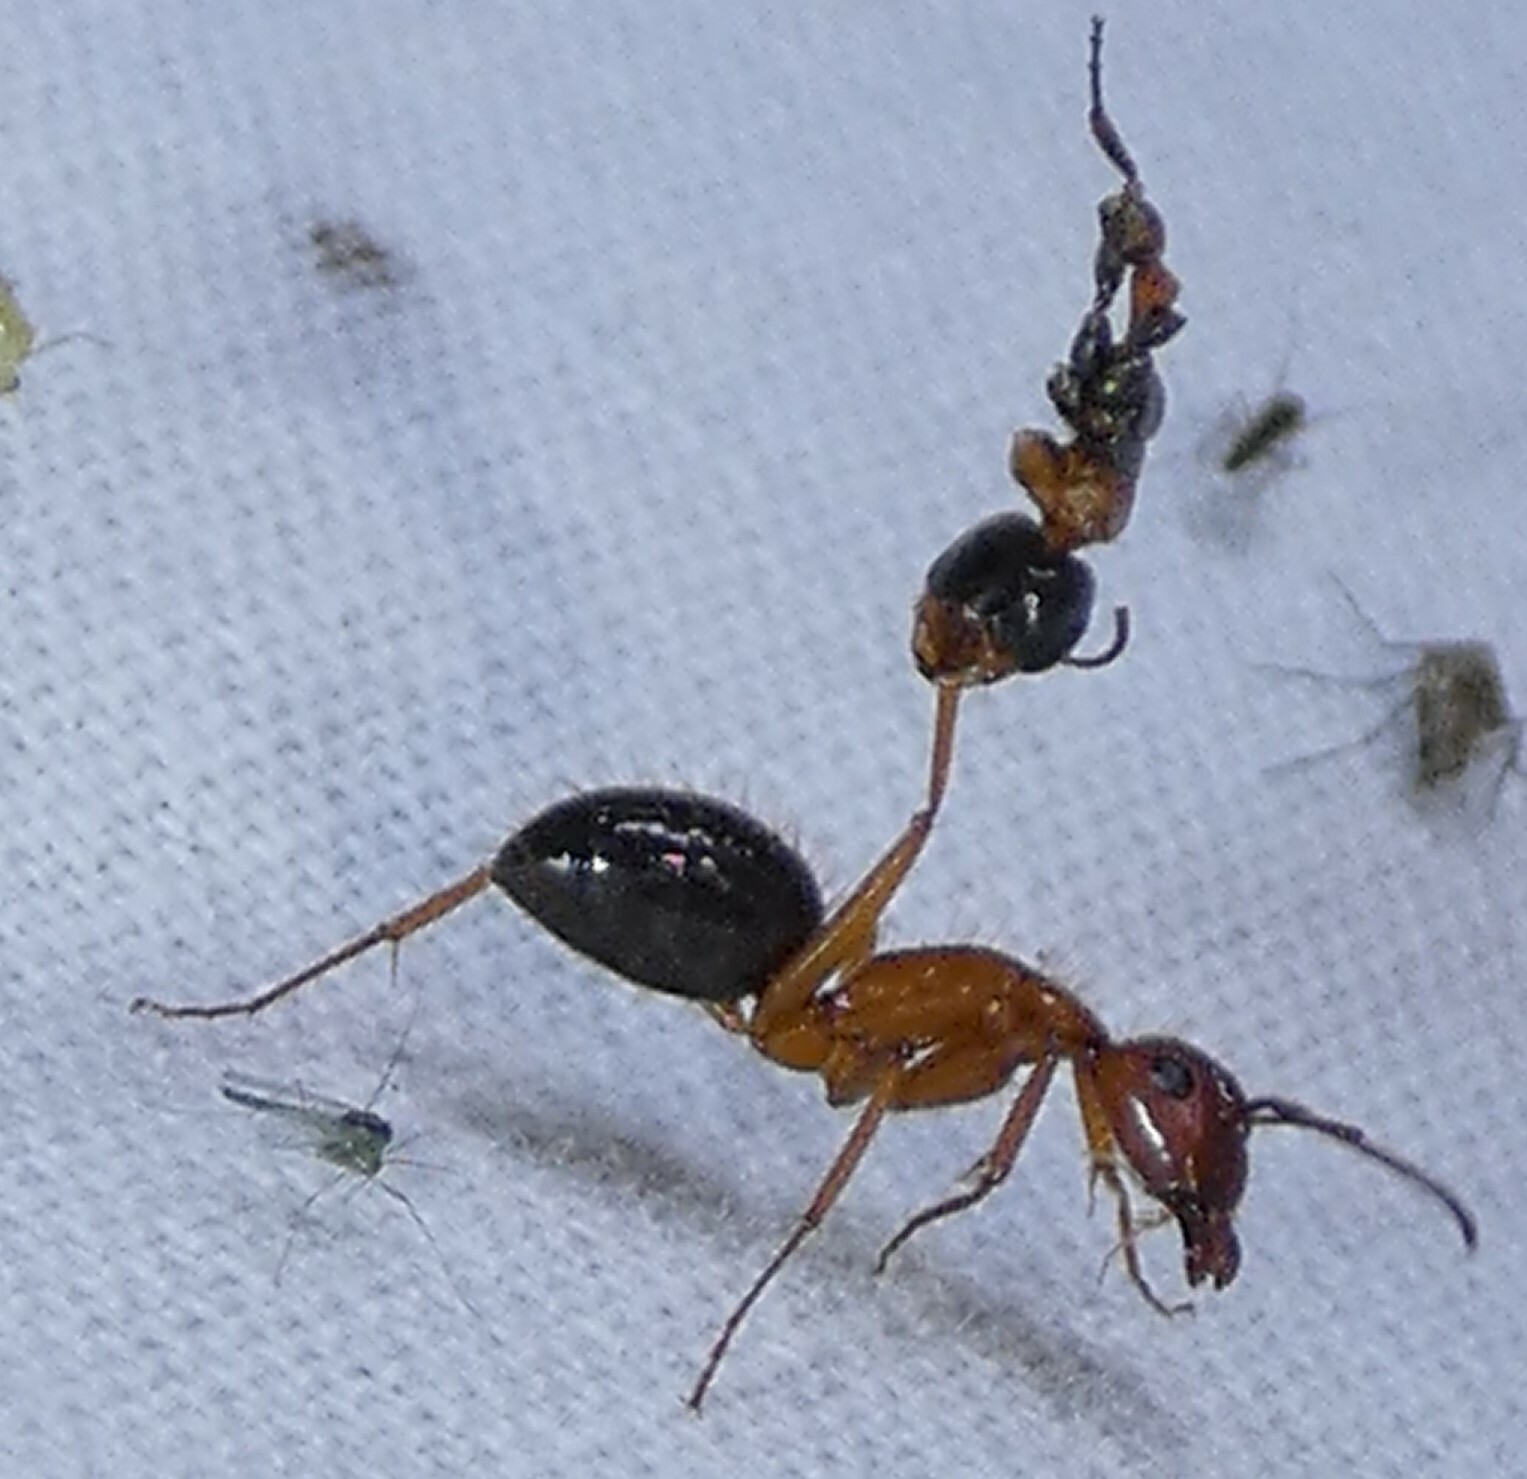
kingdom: Animalia
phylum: Arthropoda
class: Insecta
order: Hymenoptera
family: Formicidae
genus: Camponotus
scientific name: Camponotus floridanus
